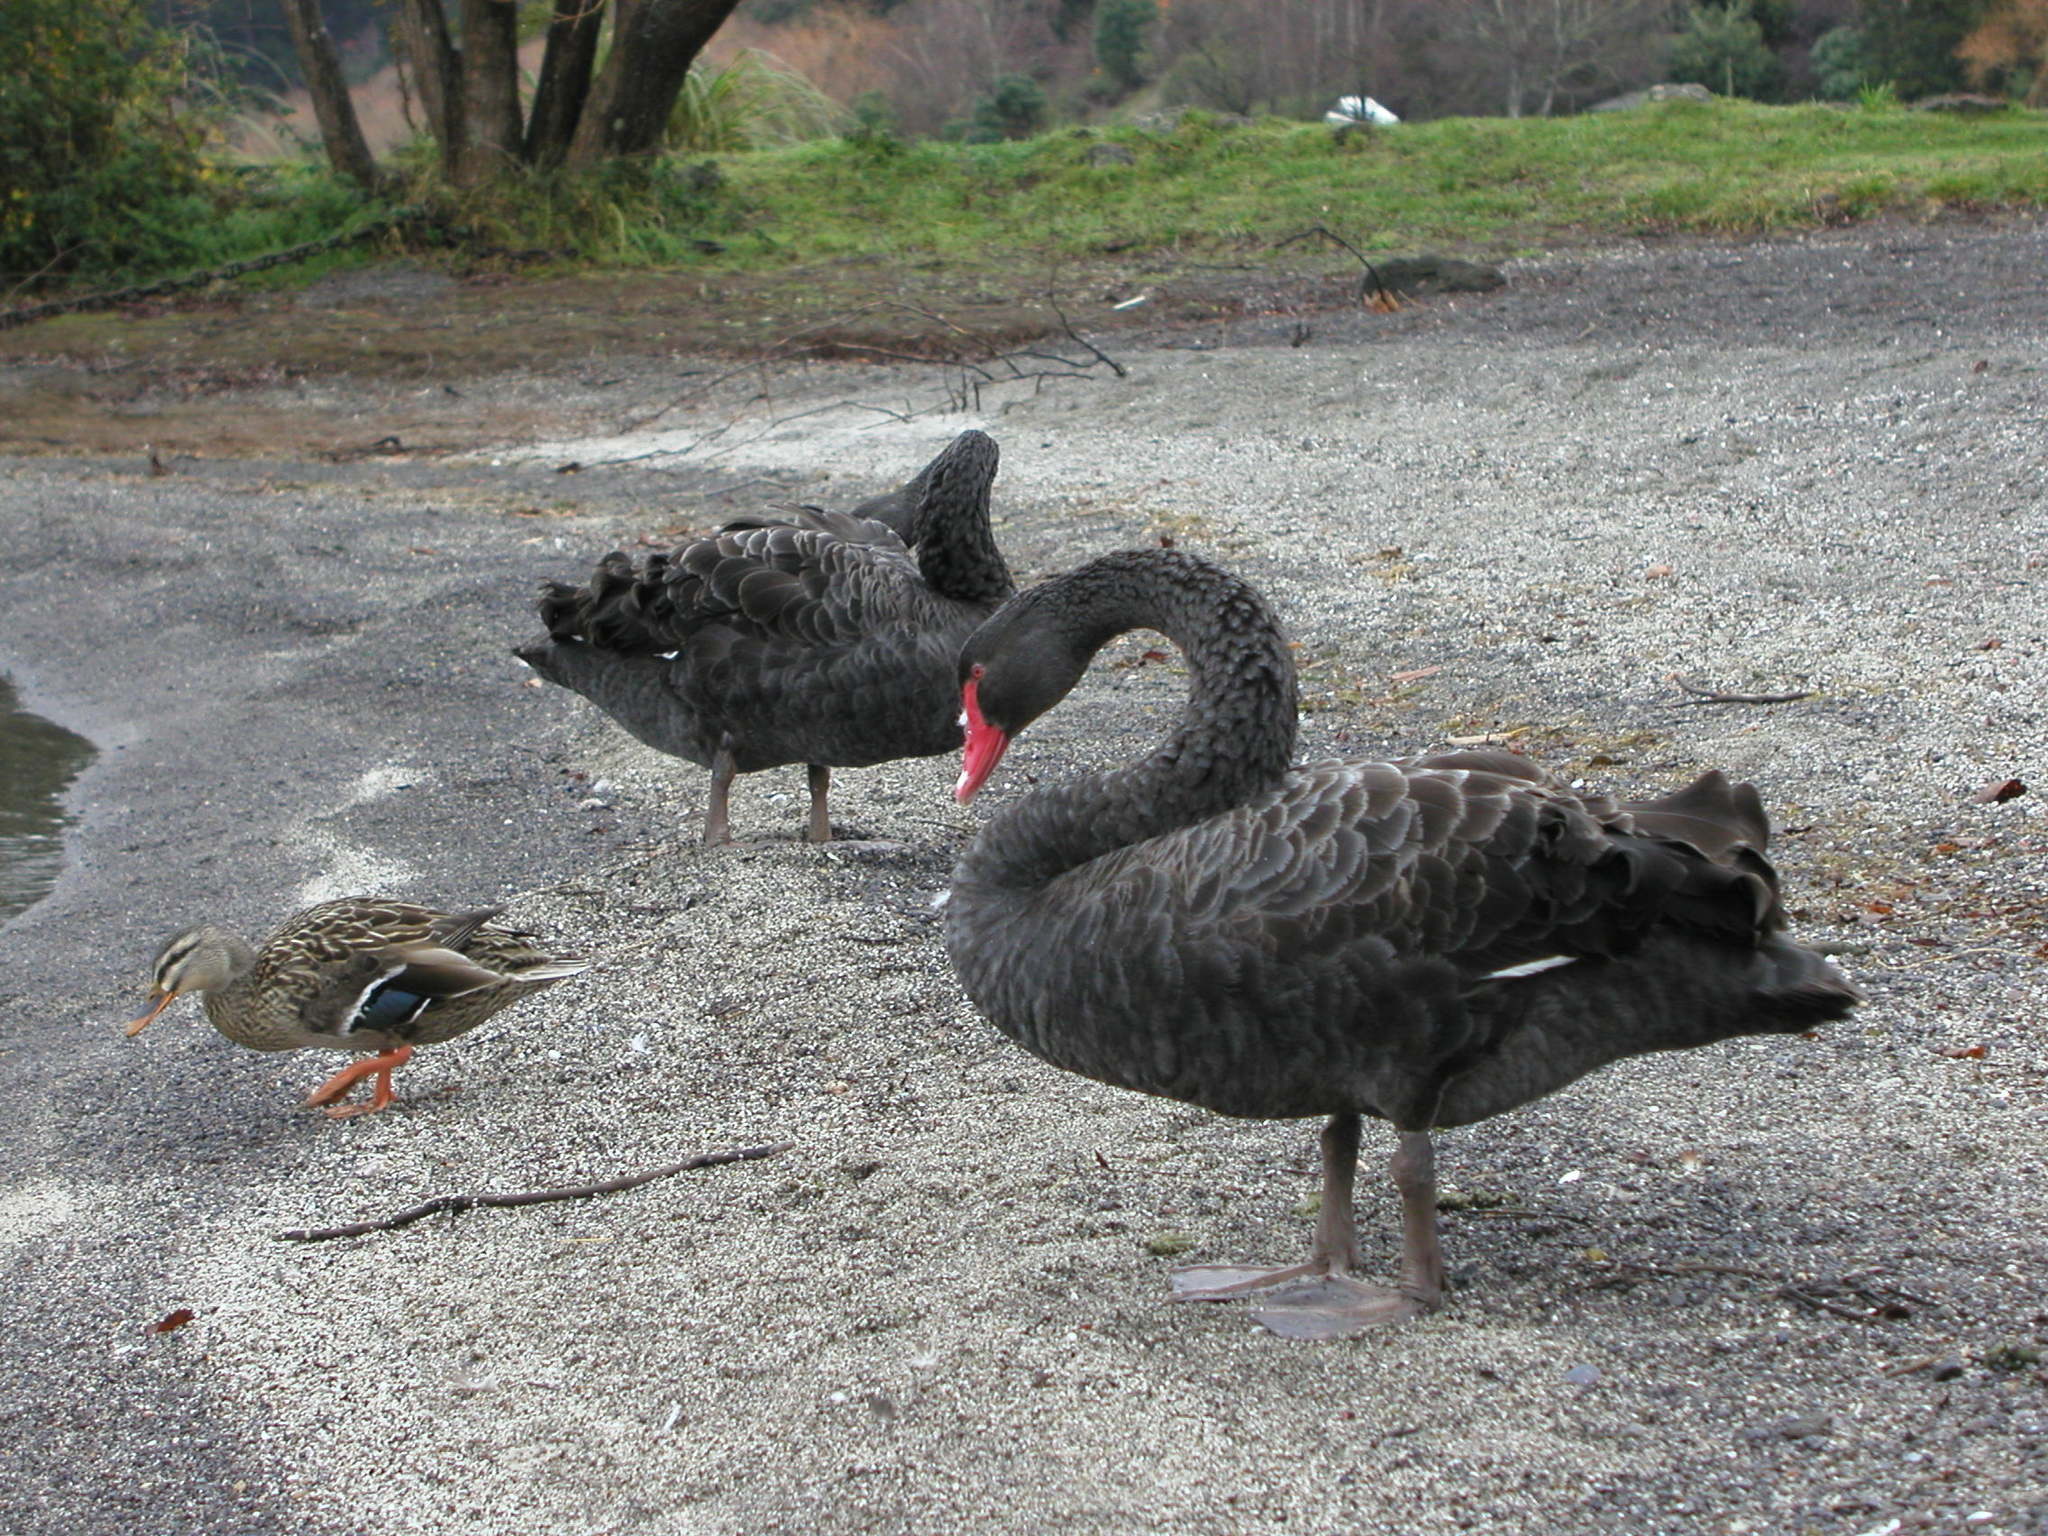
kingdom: Animalia
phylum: Chordata
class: Aves
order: Anseriformes
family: Anatidae
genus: Cygnus
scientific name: Cygnus atratus
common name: Black swan
